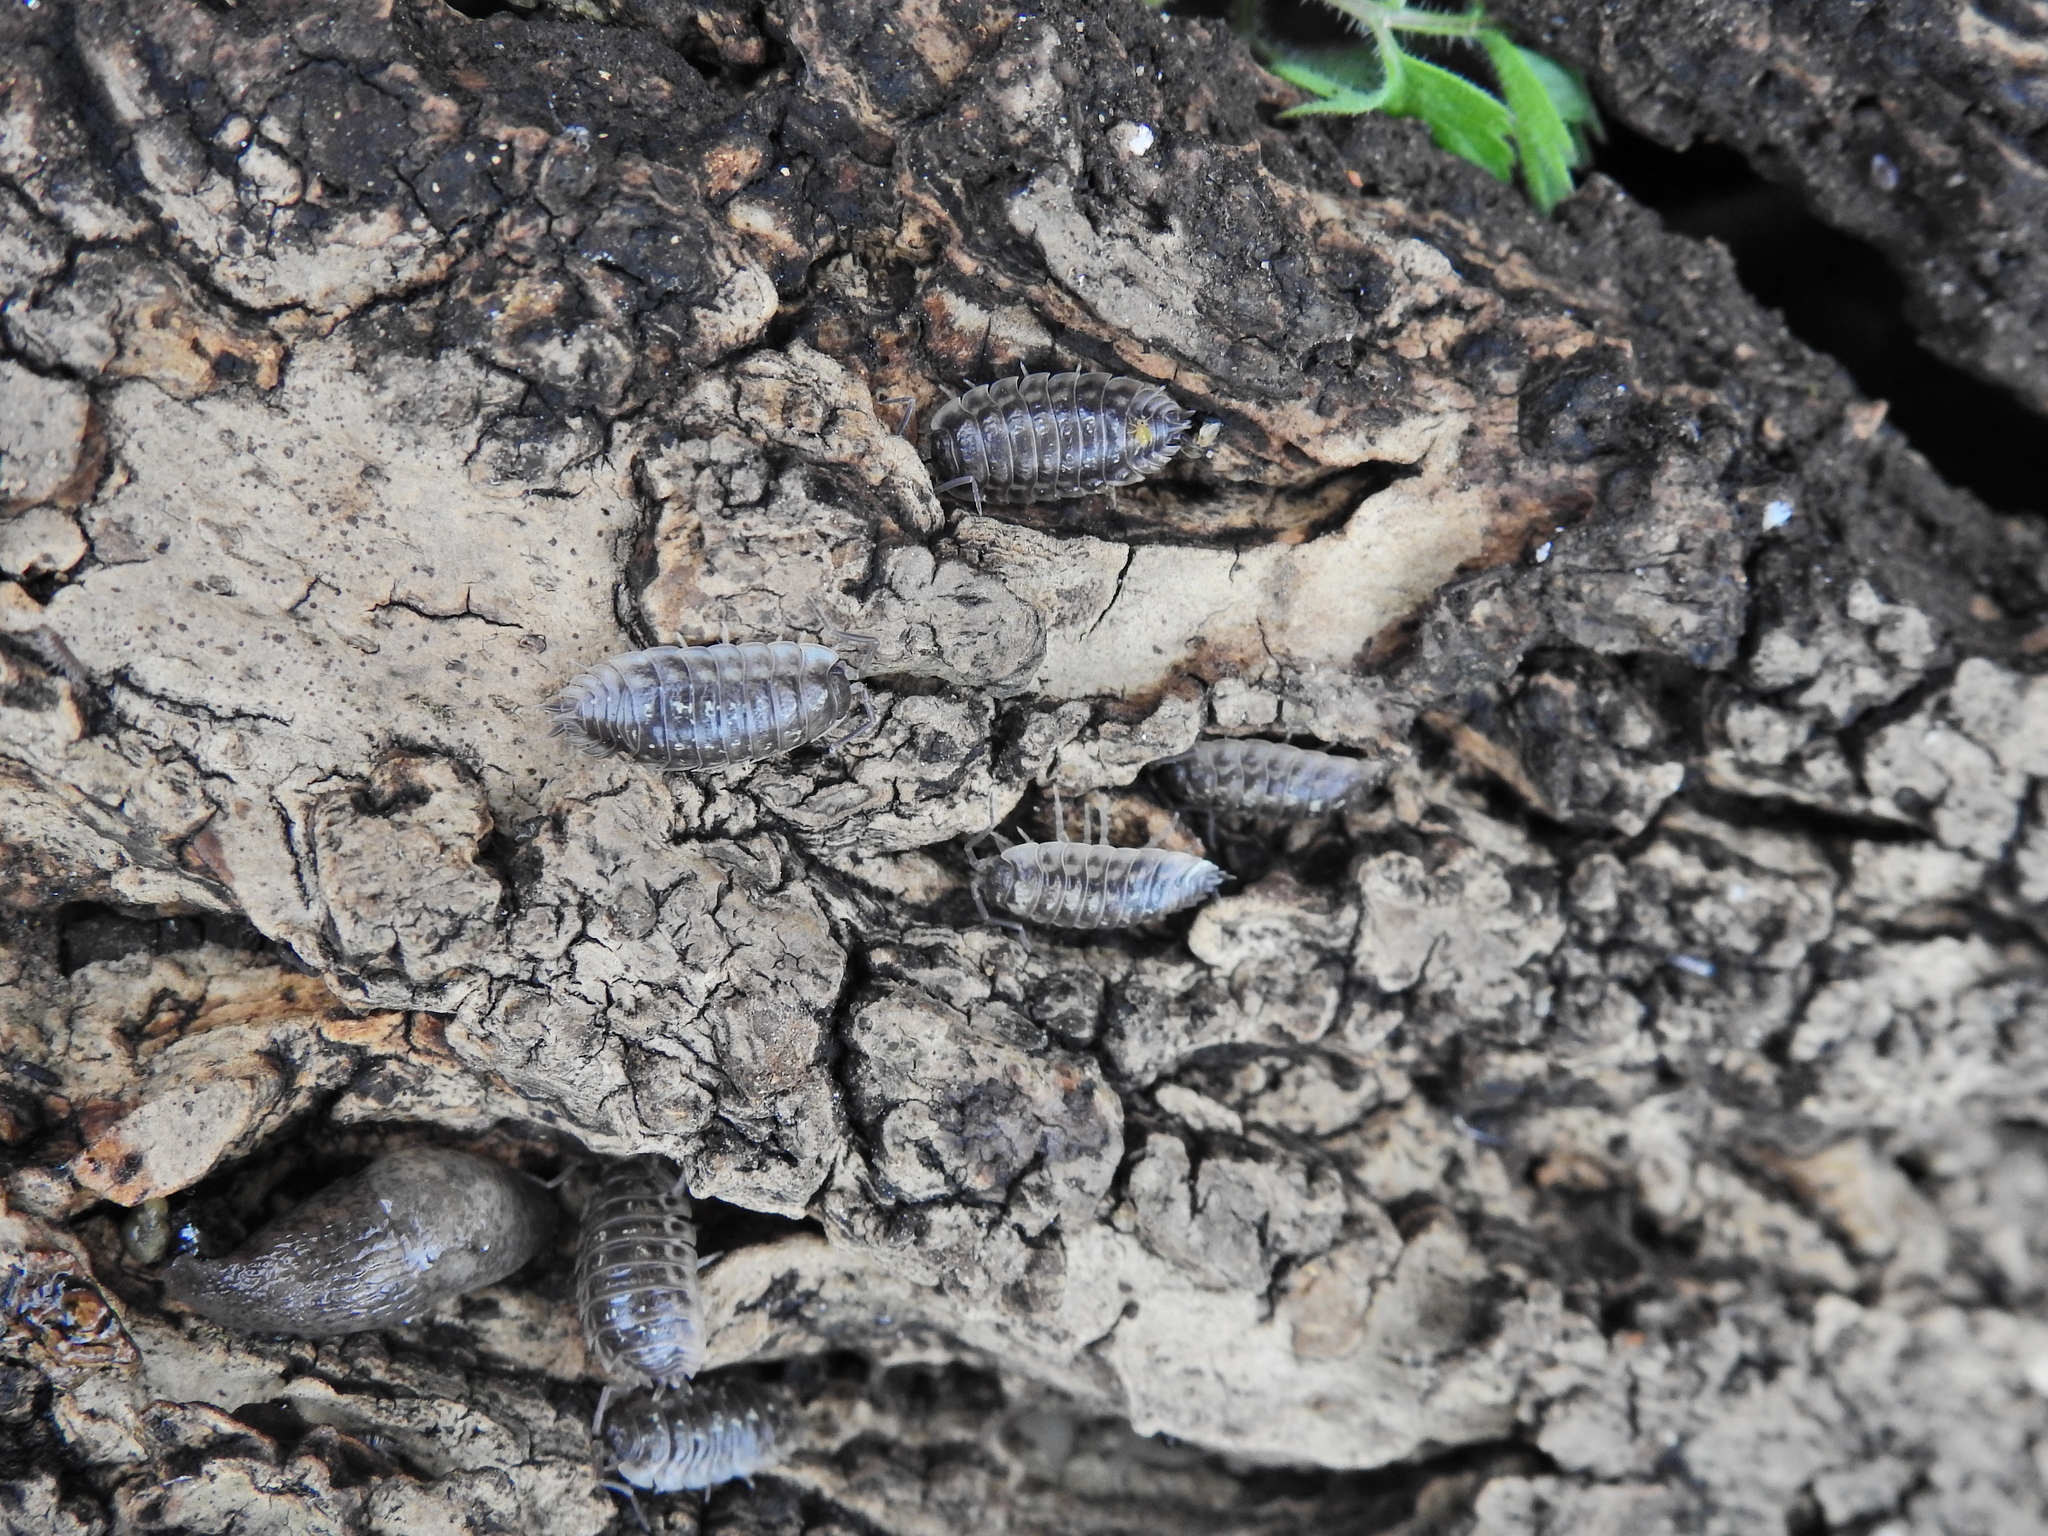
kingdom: Animalia
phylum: Arthropoda
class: Malacostraca
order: Isopoda
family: Oniscidae
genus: Oniscus
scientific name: Oniscus asellus
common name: Common shiny woodlouse
